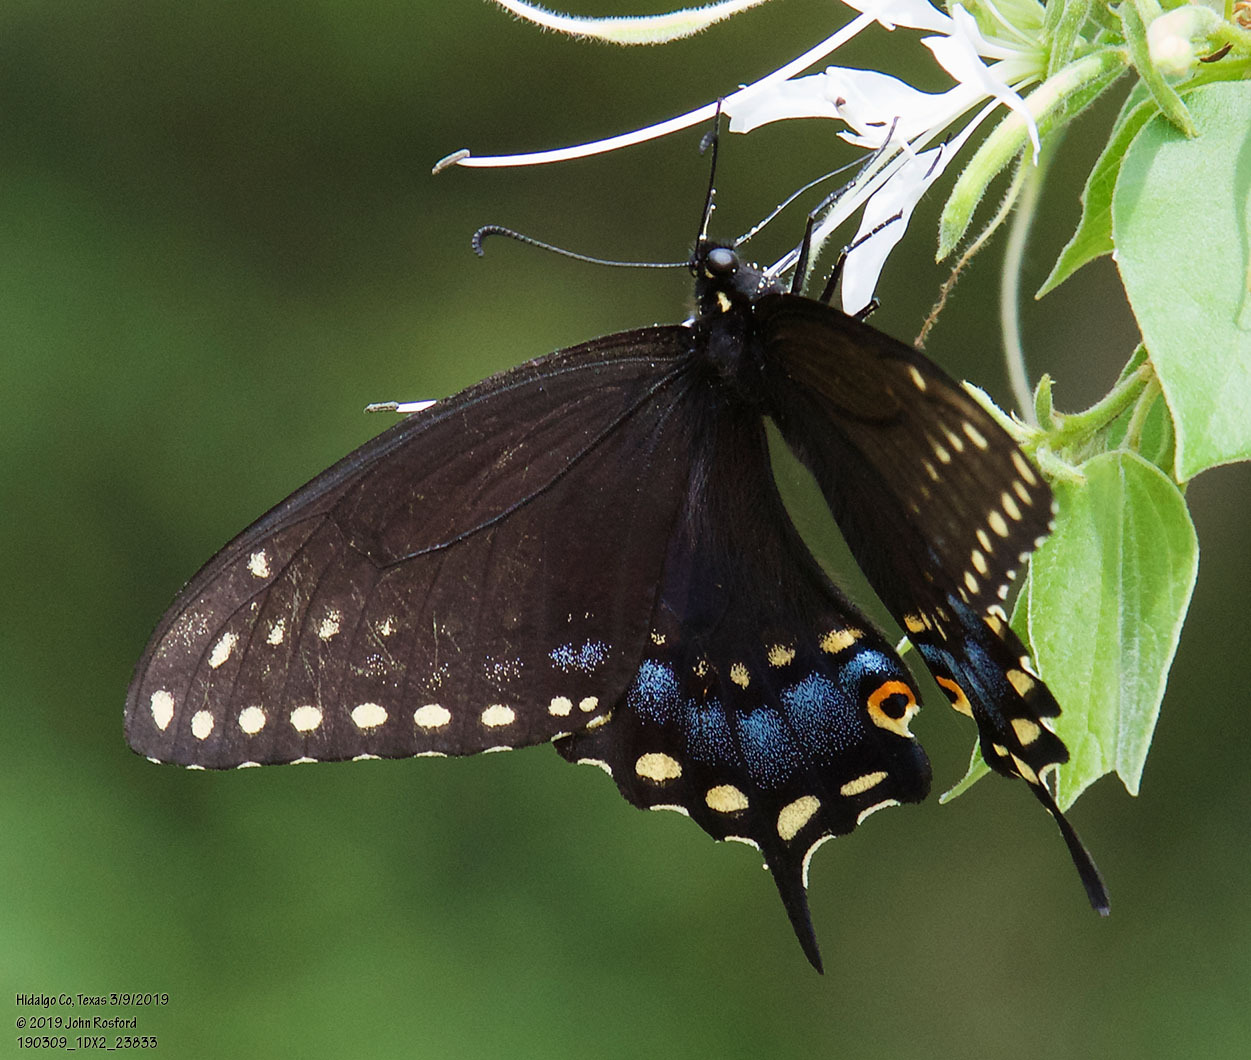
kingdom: Animalia
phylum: Arthropoda
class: Insecta
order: Lepidoptera
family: Papilionidae
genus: Papilio
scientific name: Papilio polyxenes
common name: Black swallowtail
